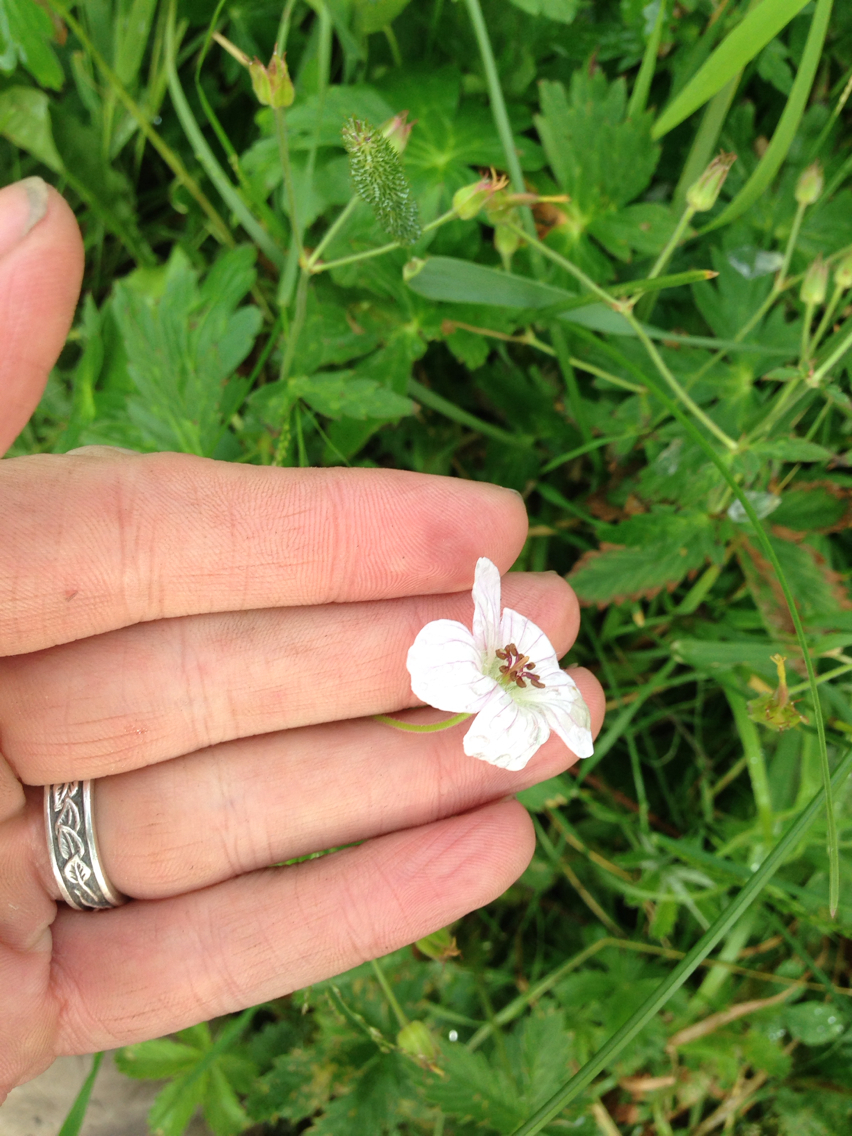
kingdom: Plantae
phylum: Tracheophyta
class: Magnoliopsida
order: Geraniales
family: Geraniaceae
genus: Geranium
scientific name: Geranium richardsonii
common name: Richardson's crane's-bill
